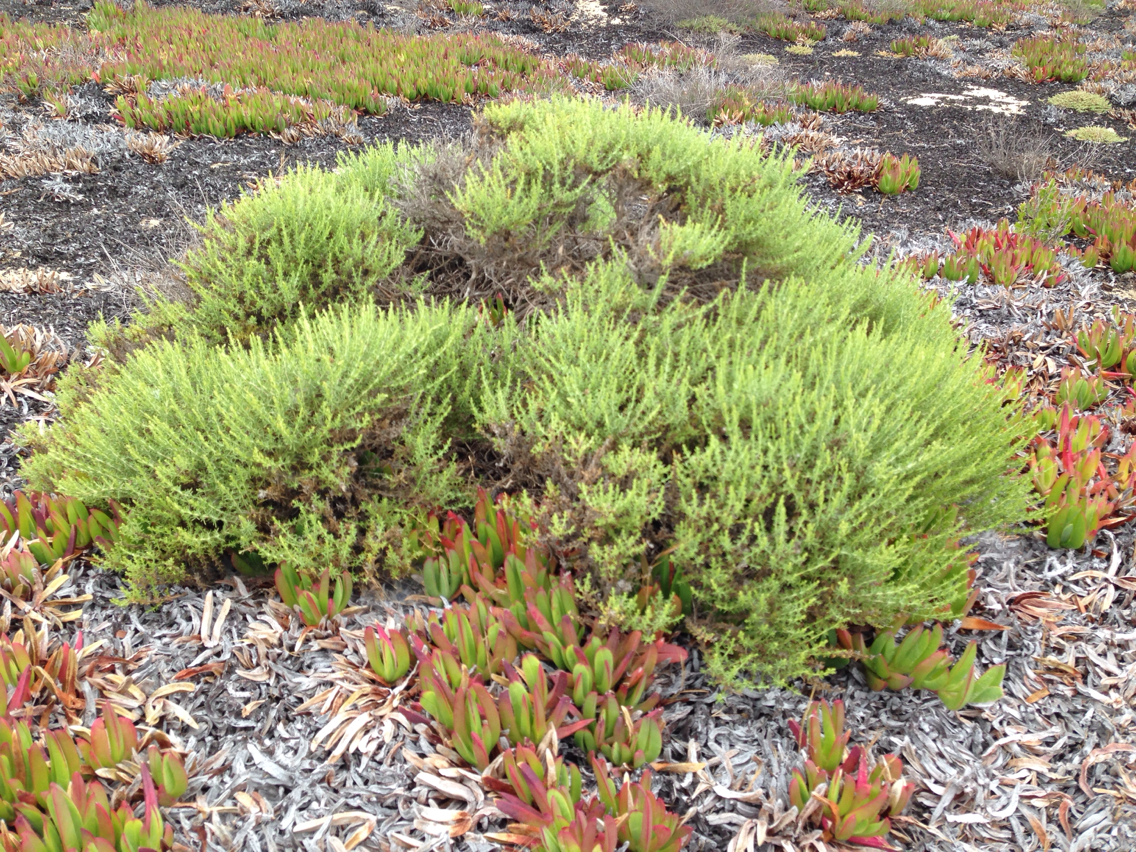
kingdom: Plantae
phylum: Tracheophyta
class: Magnoliopsida
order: Asterales
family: Asteraceae
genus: Ericameria
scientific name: Ericameria ericoides
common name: California goldenbush
